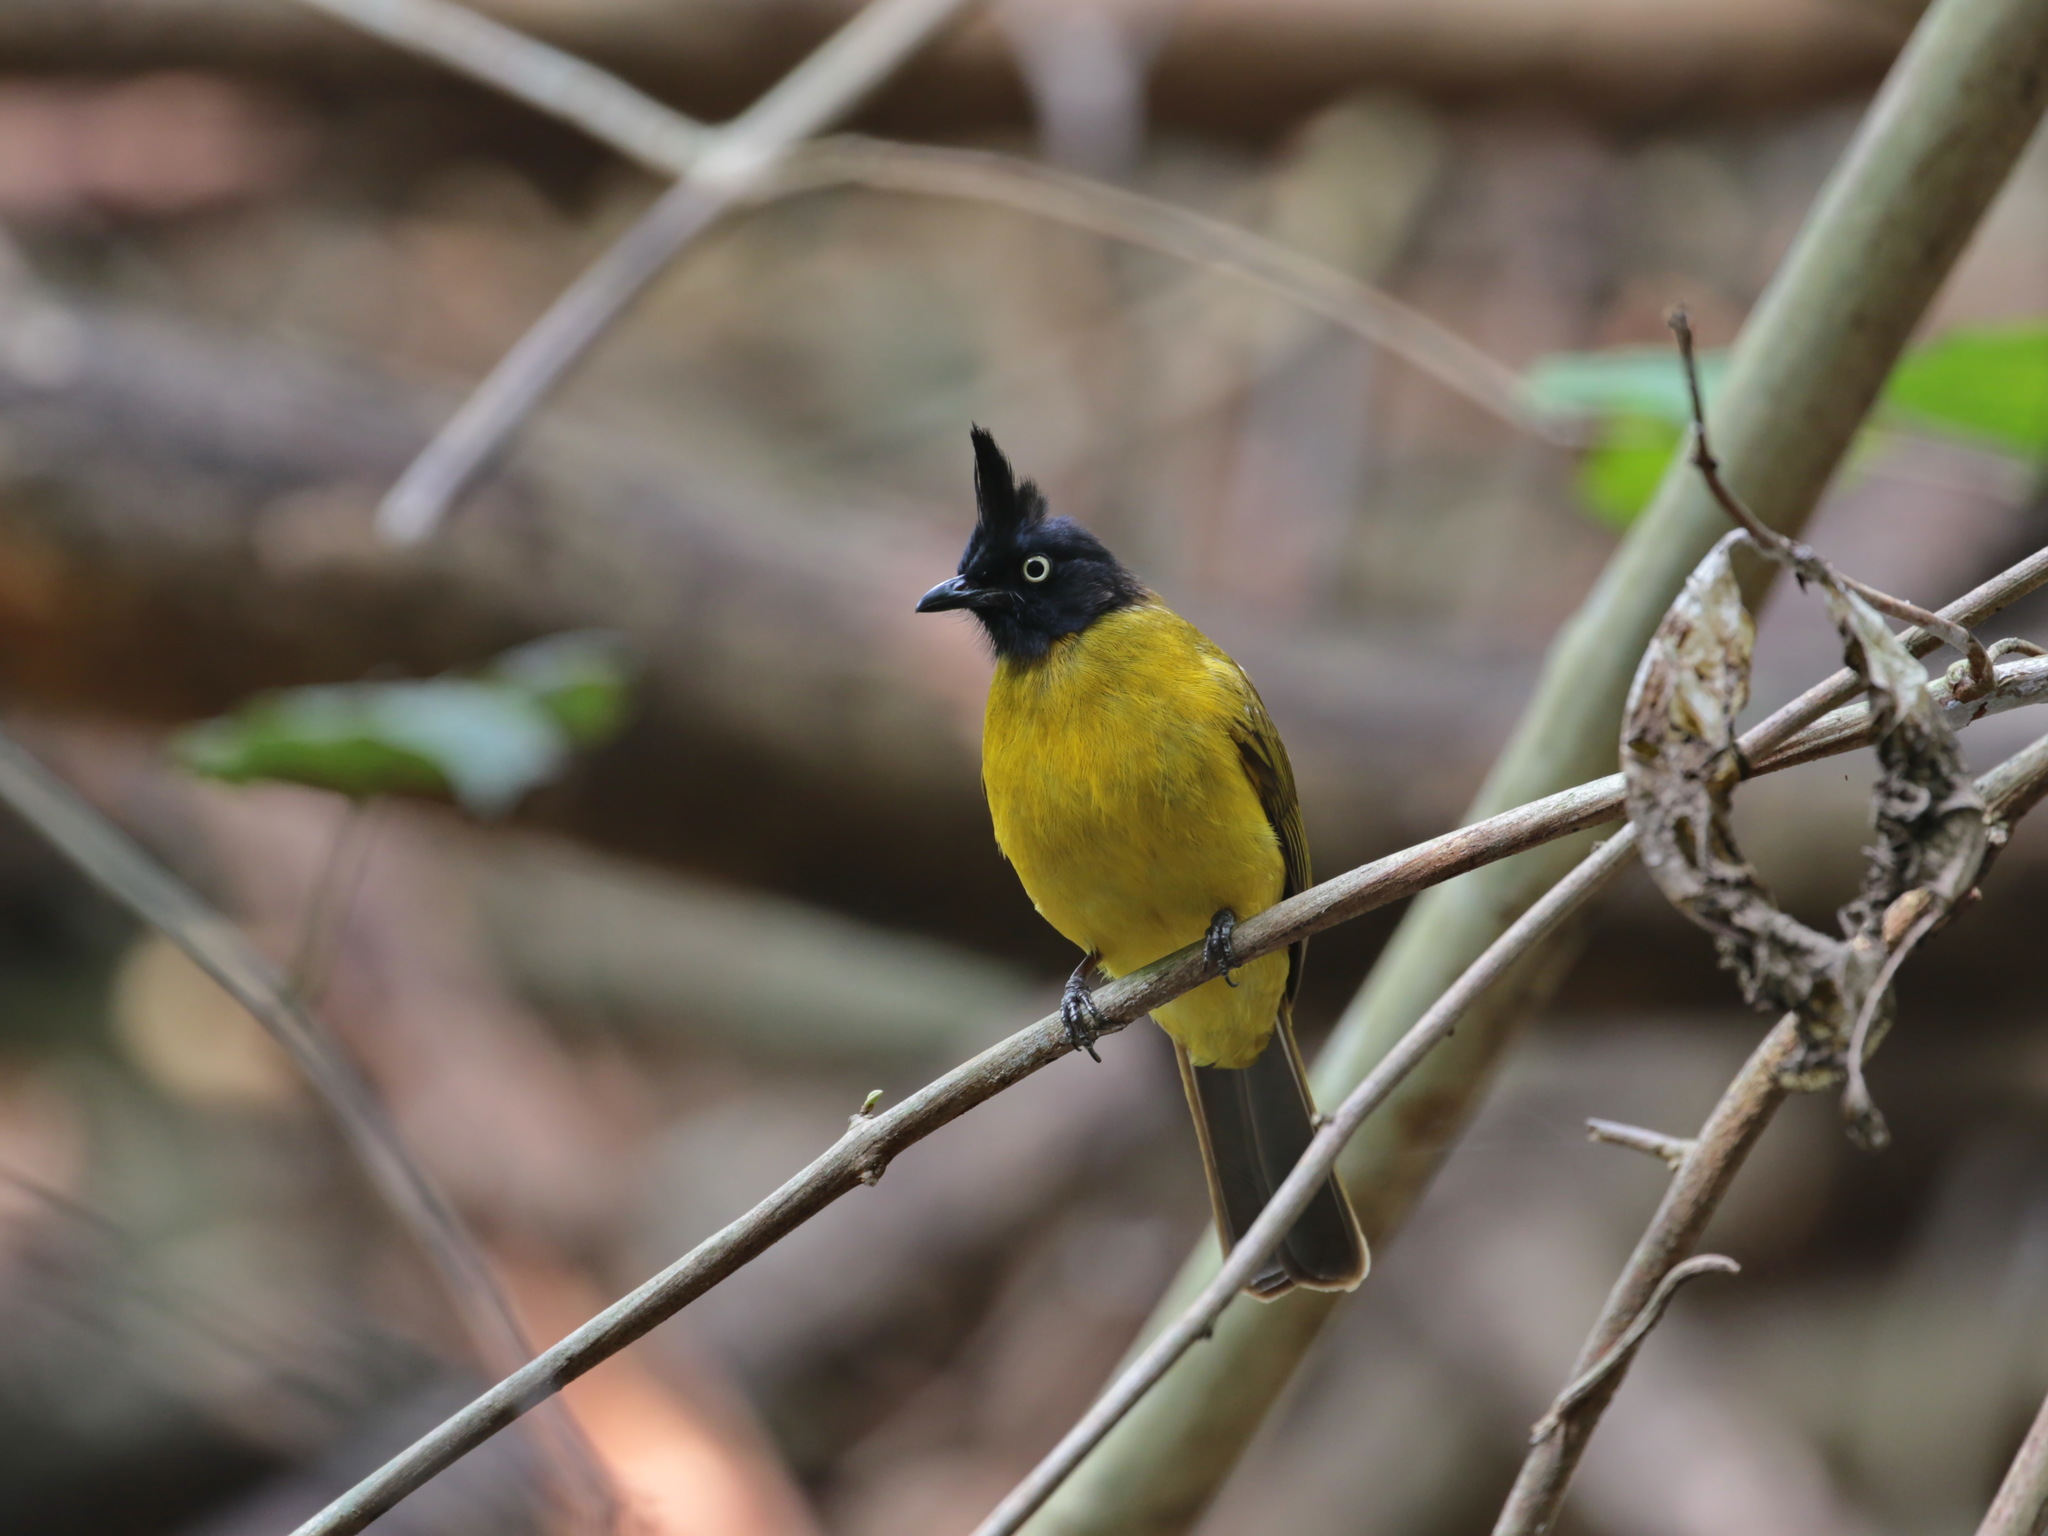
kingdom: Animalia
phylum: Chordata
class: Aves
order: Passeriformes
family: Pycnonotidae
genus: Pycnonotus
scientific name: Pycnonotus flaviventris
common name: Black-crested bulbul
